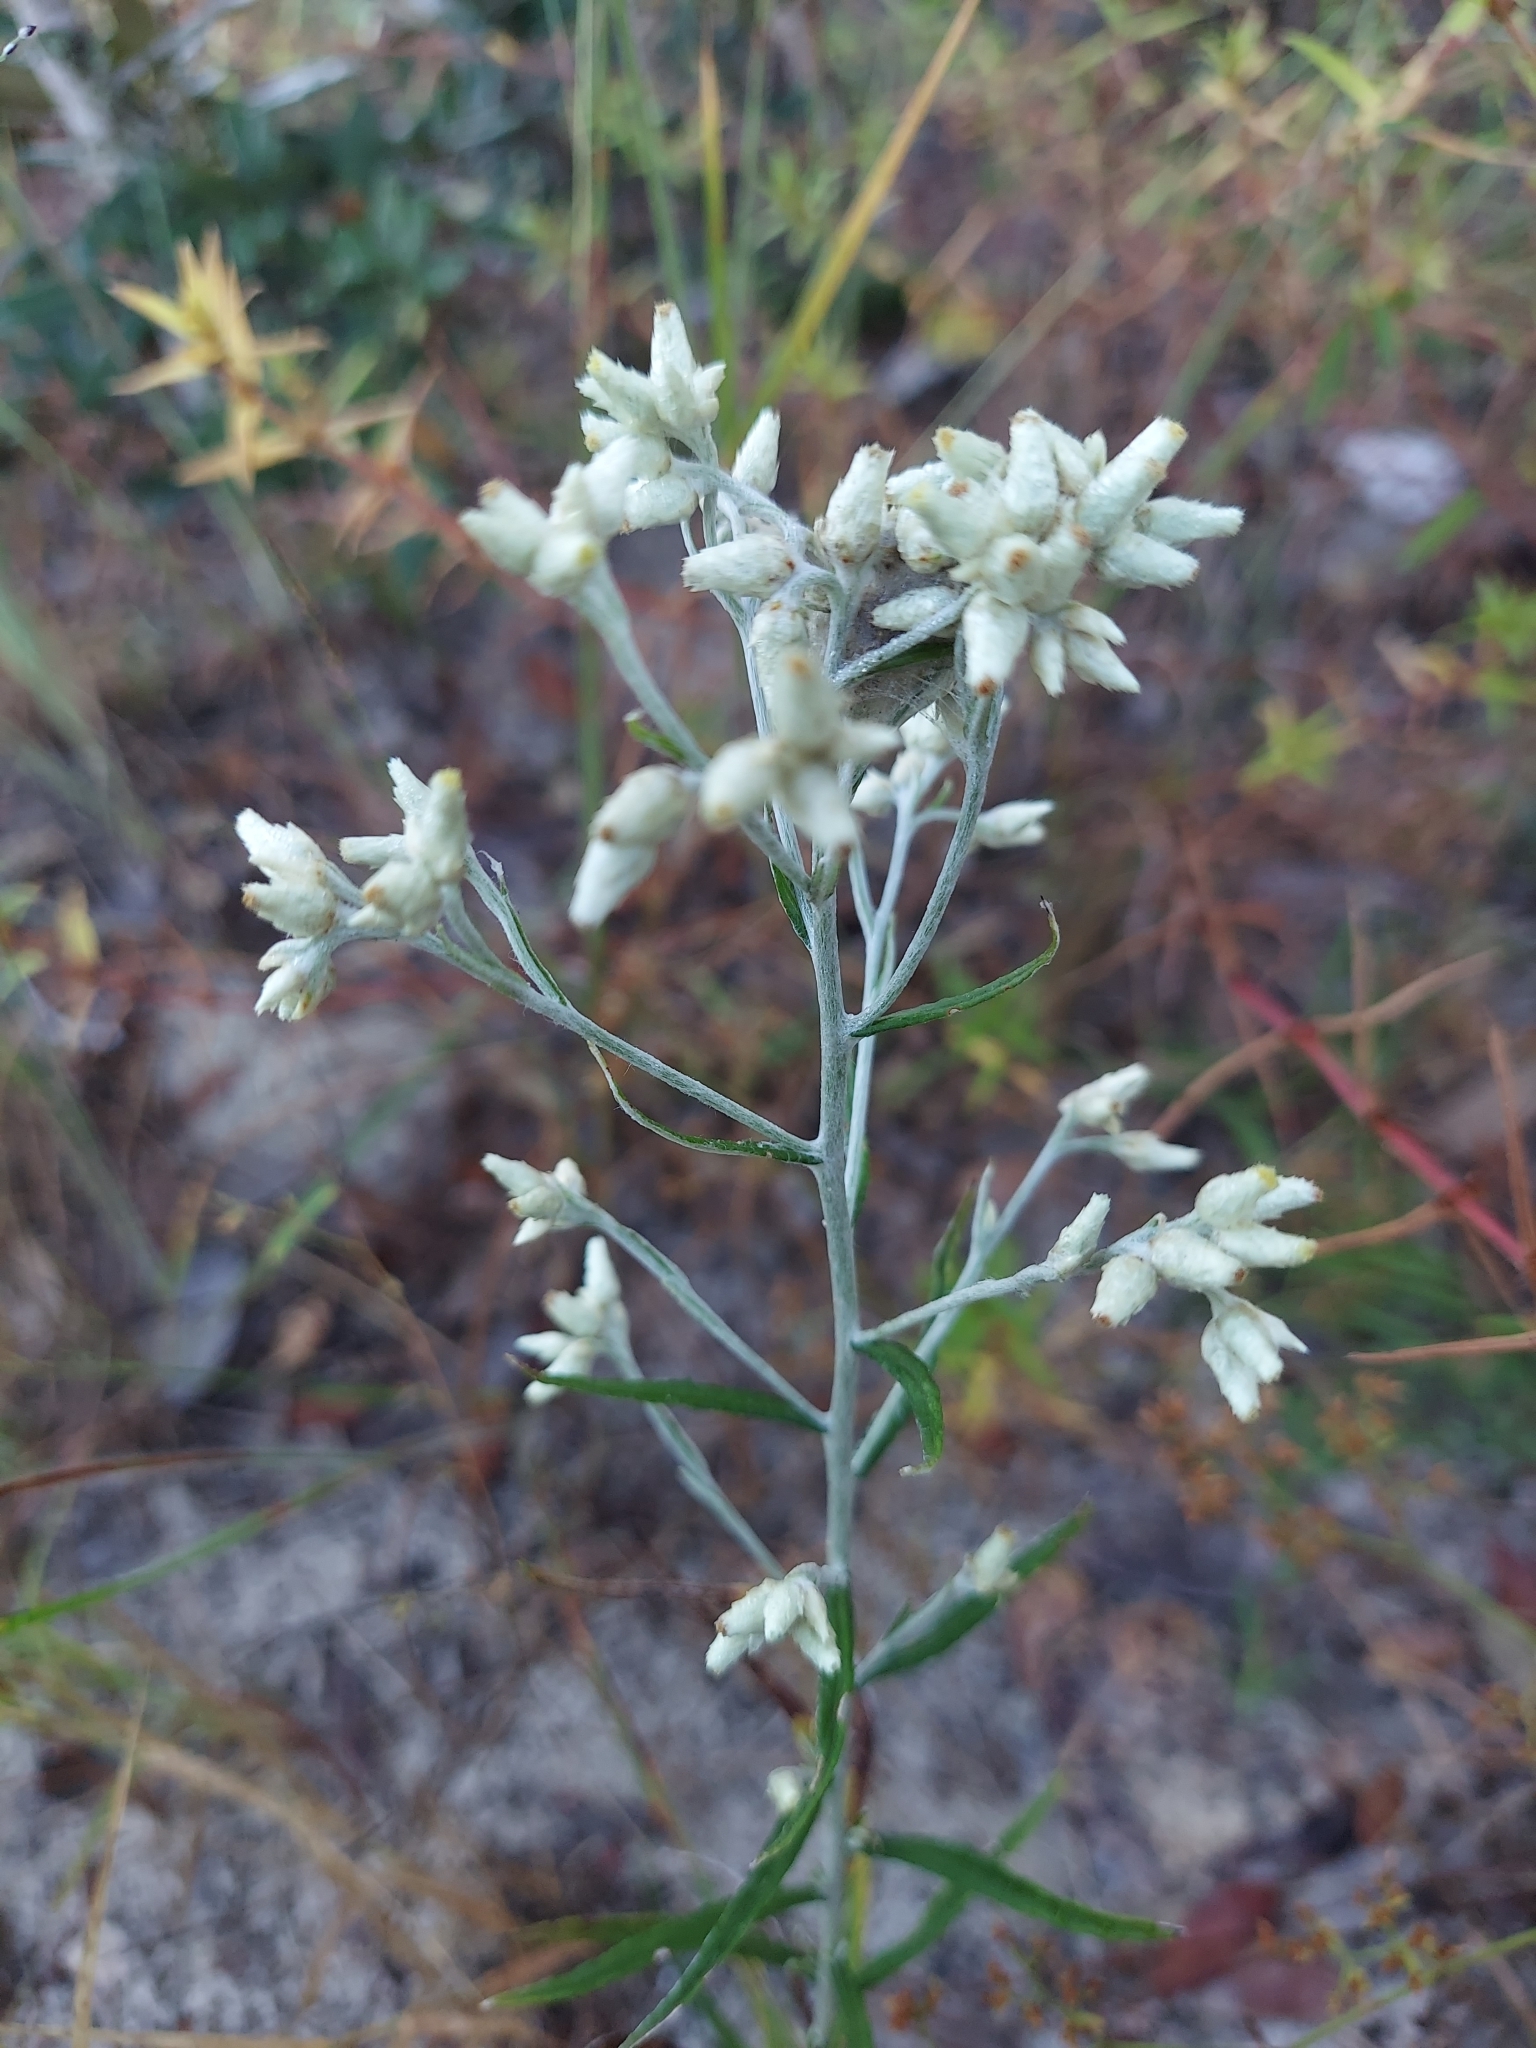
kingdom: Plantae
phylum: Tracheophyta
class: Magnoliopsida
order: Asterales
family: Asteraceae
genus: Pseudognaphalium
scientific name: Pseudognaphalium obtusifolium
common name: Eastern rabbit-tobacco
